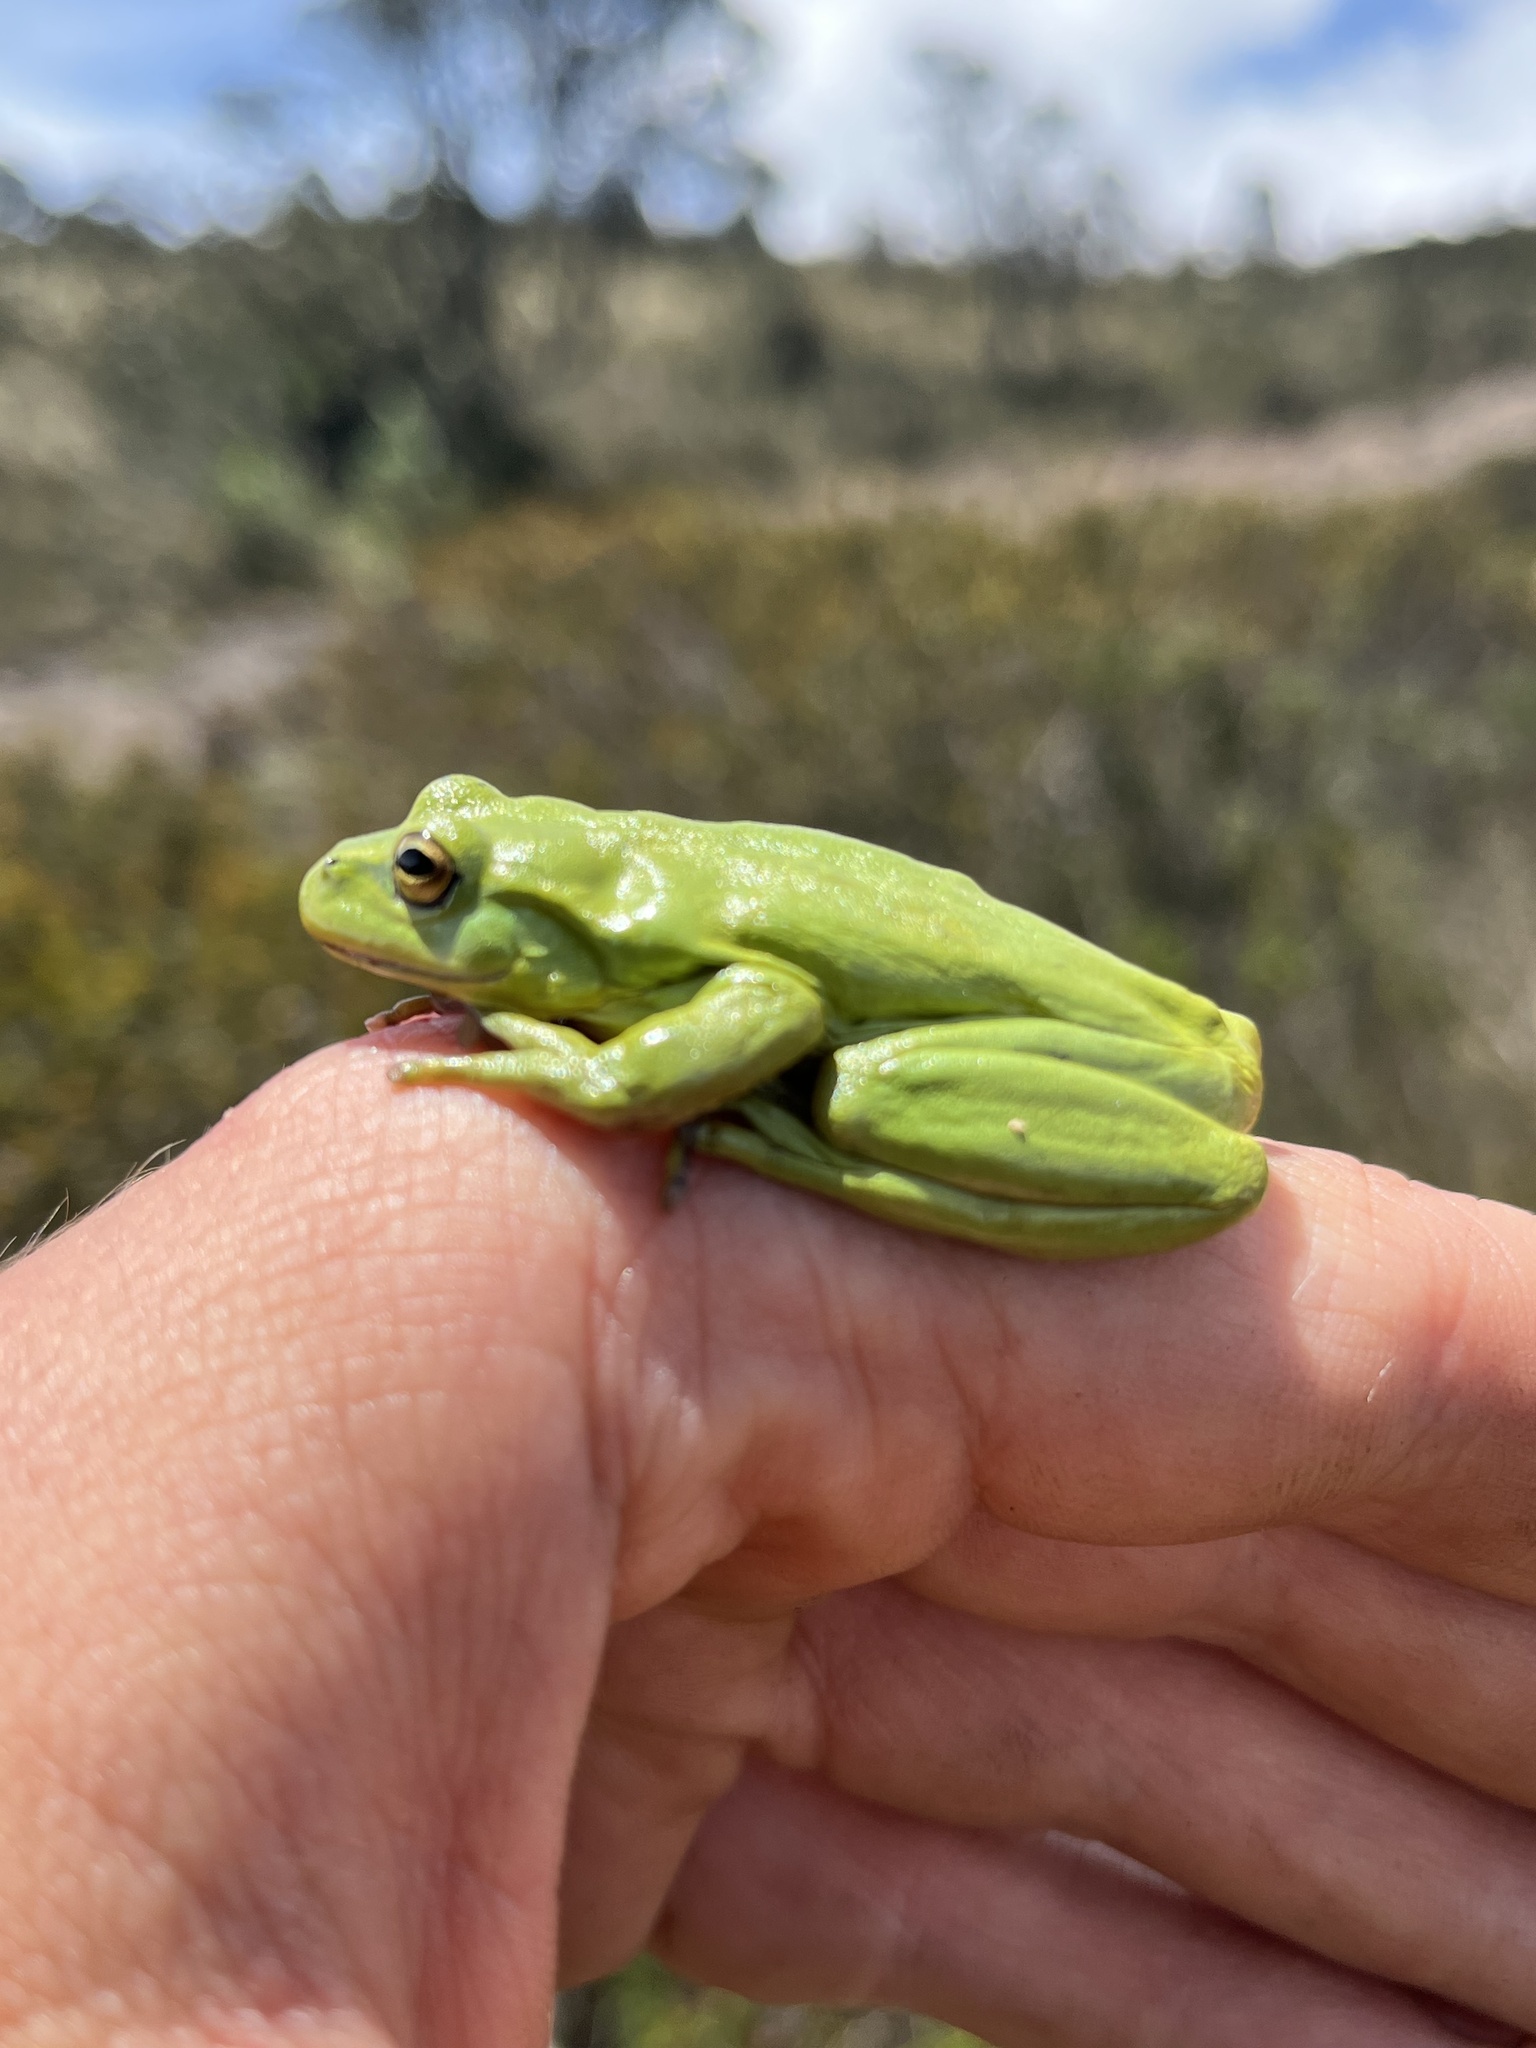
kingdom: Animalia
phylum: Chordata
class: Amphibia
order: Anura
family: Hylidae
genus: Dendropsophus
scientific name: Dendropsophus molitor
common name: Green dotted treefrog
